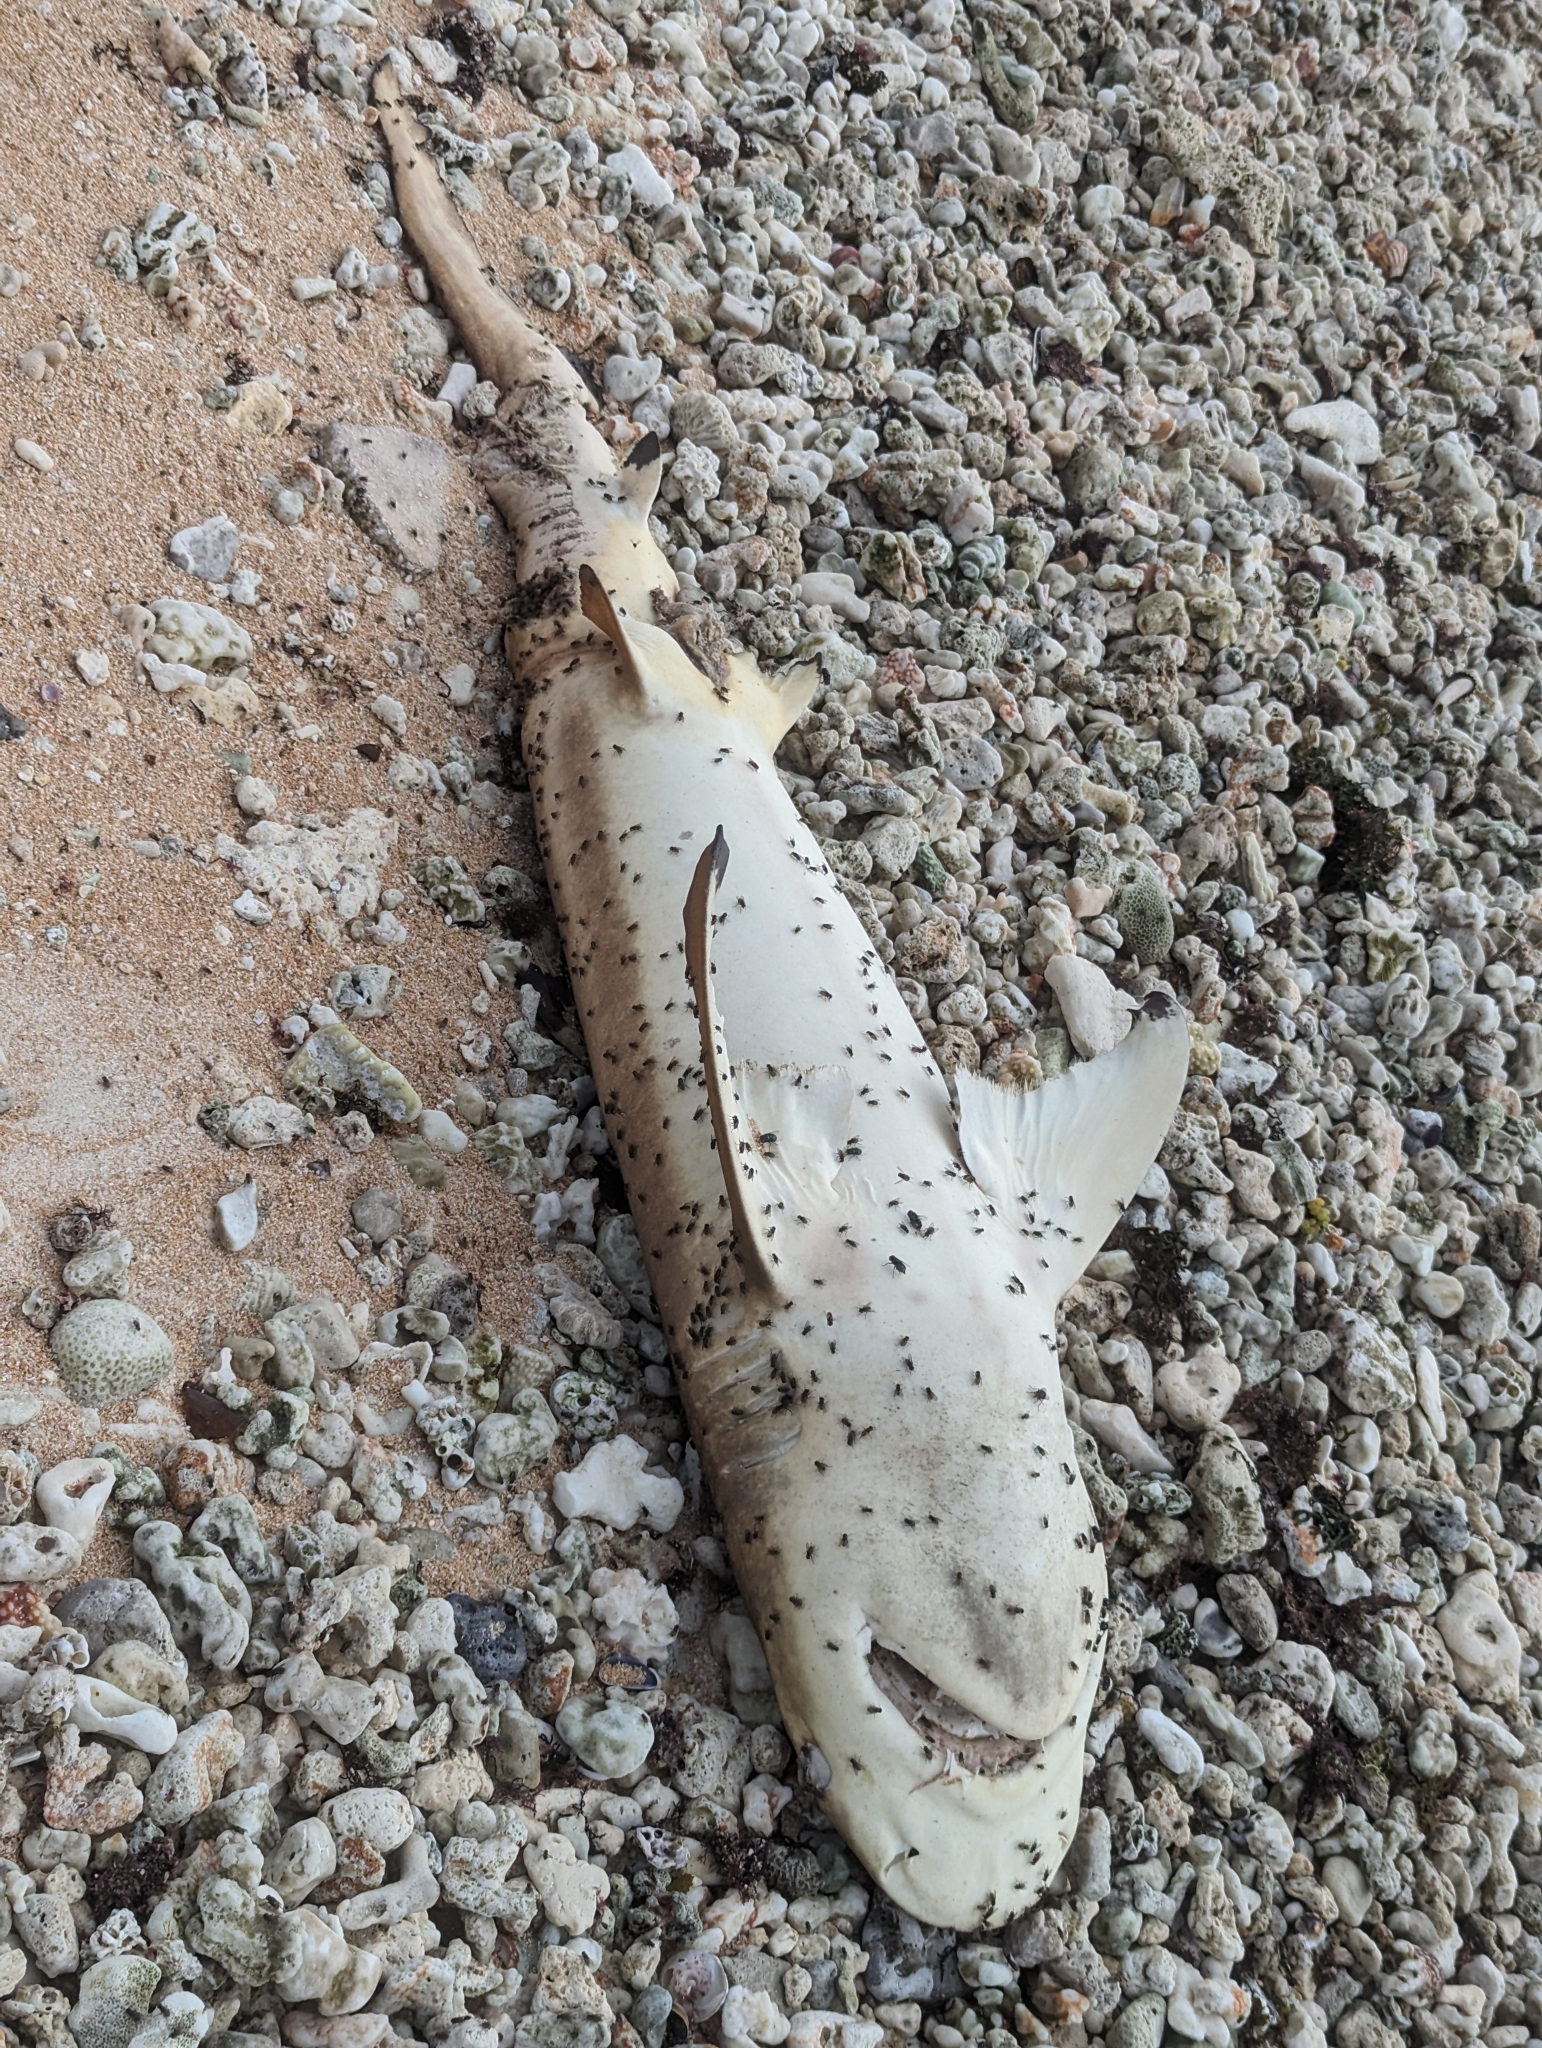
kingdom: Animalia
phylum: Chordata
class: Elasmobranchii
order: Carcharhiniformes
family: Carcharhinidae
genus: Carcharhinus
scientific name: Carcharhinus melanopterus
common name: Blacktip reef shark
